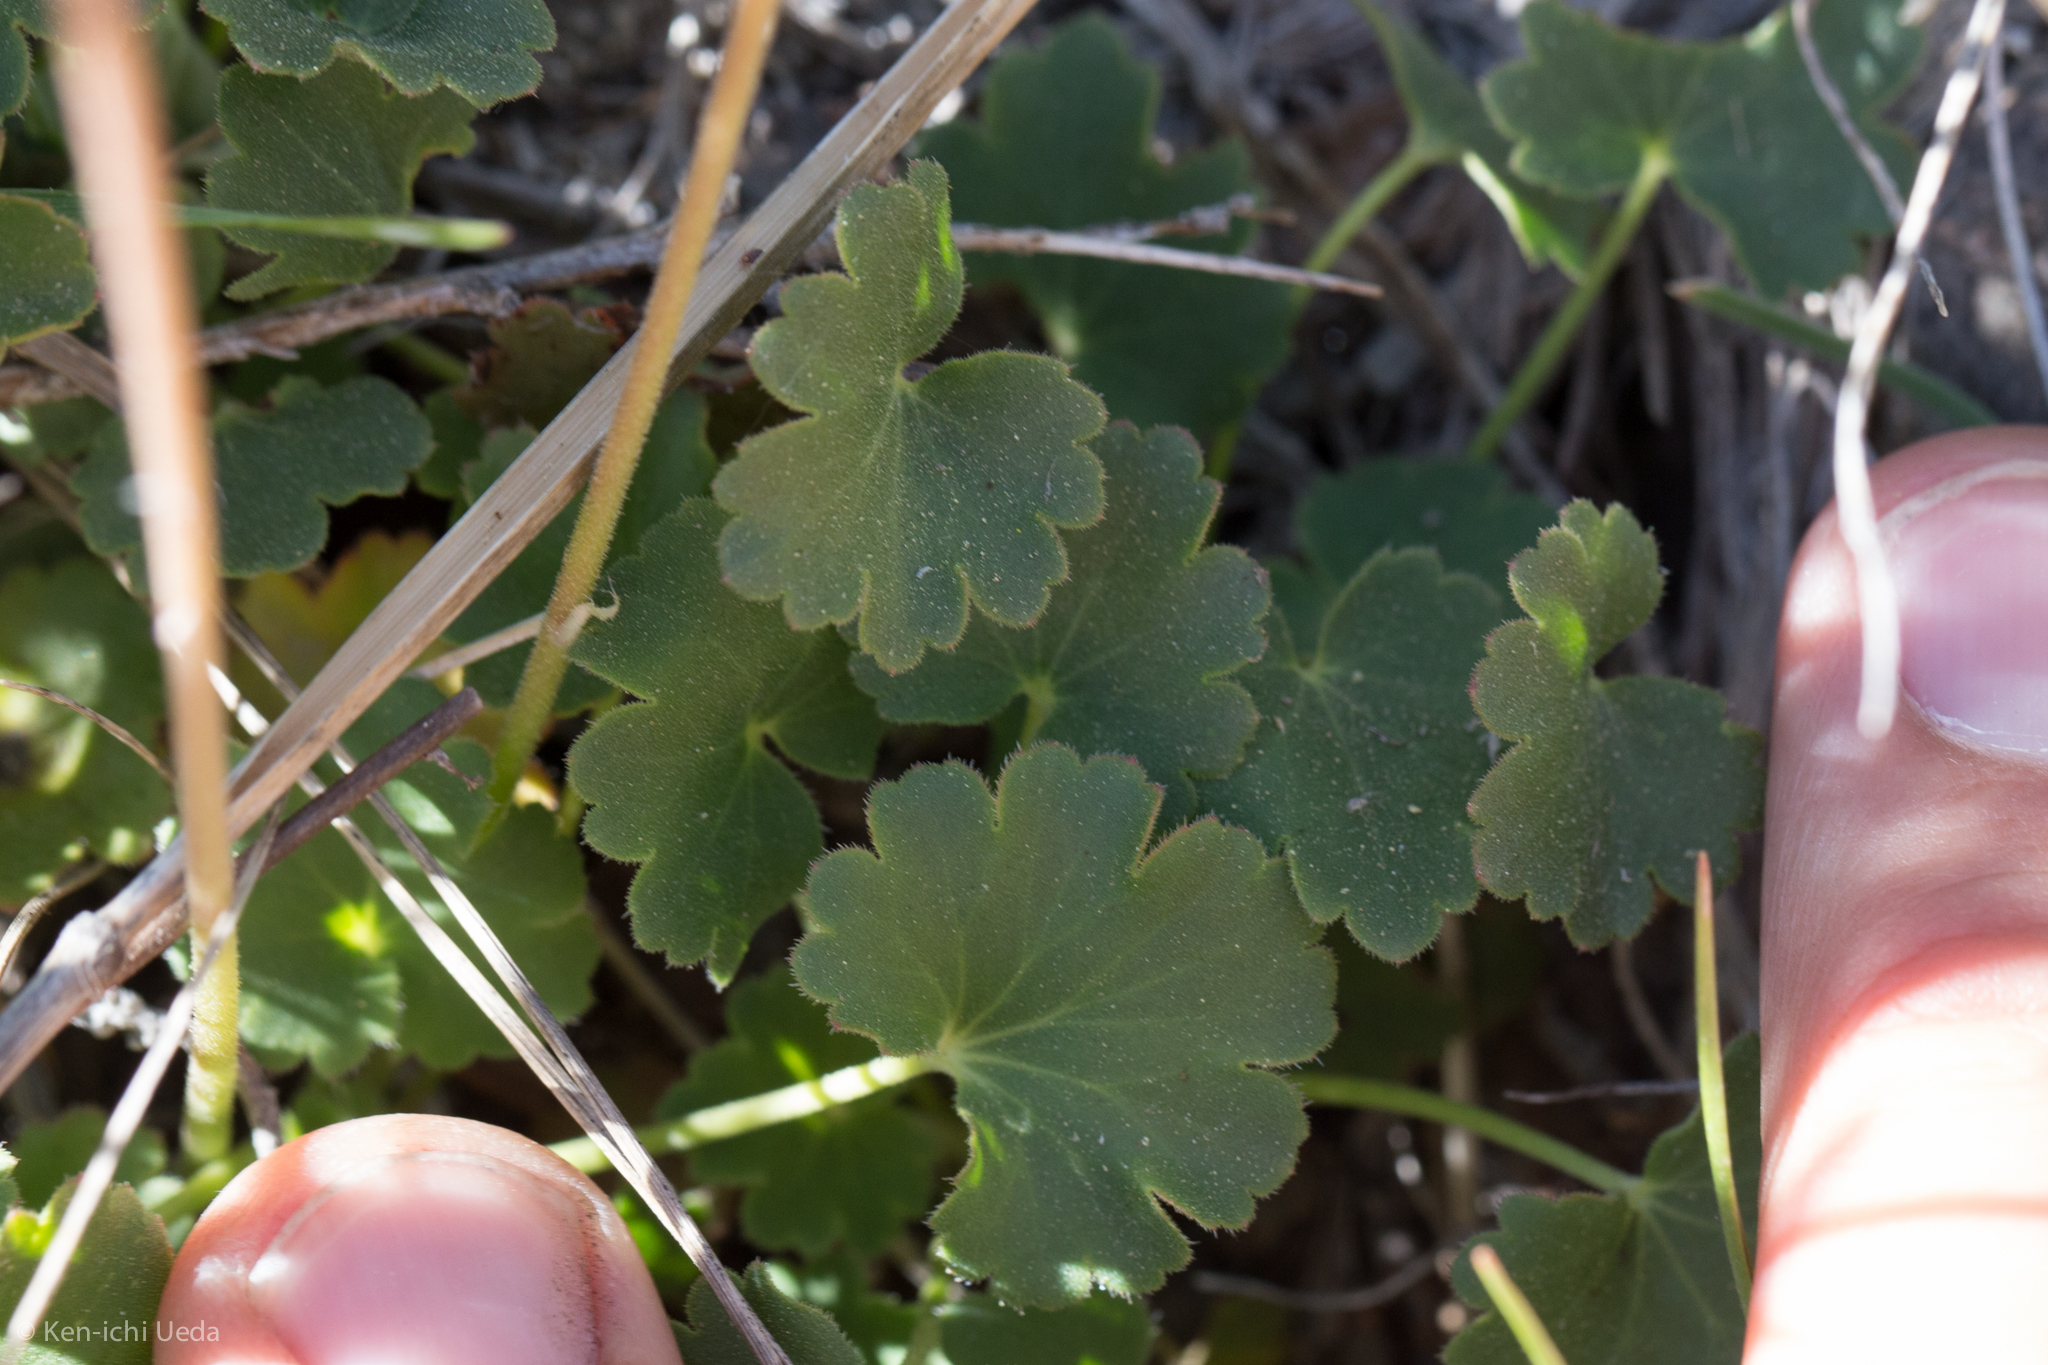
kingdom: Plantae
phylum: Tracheophyta
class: Magnoliopsida
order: Saxifragales
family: Saxifragaceae
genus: Heuchera
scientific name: Heuchera parvifolia
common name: Common alumroot
